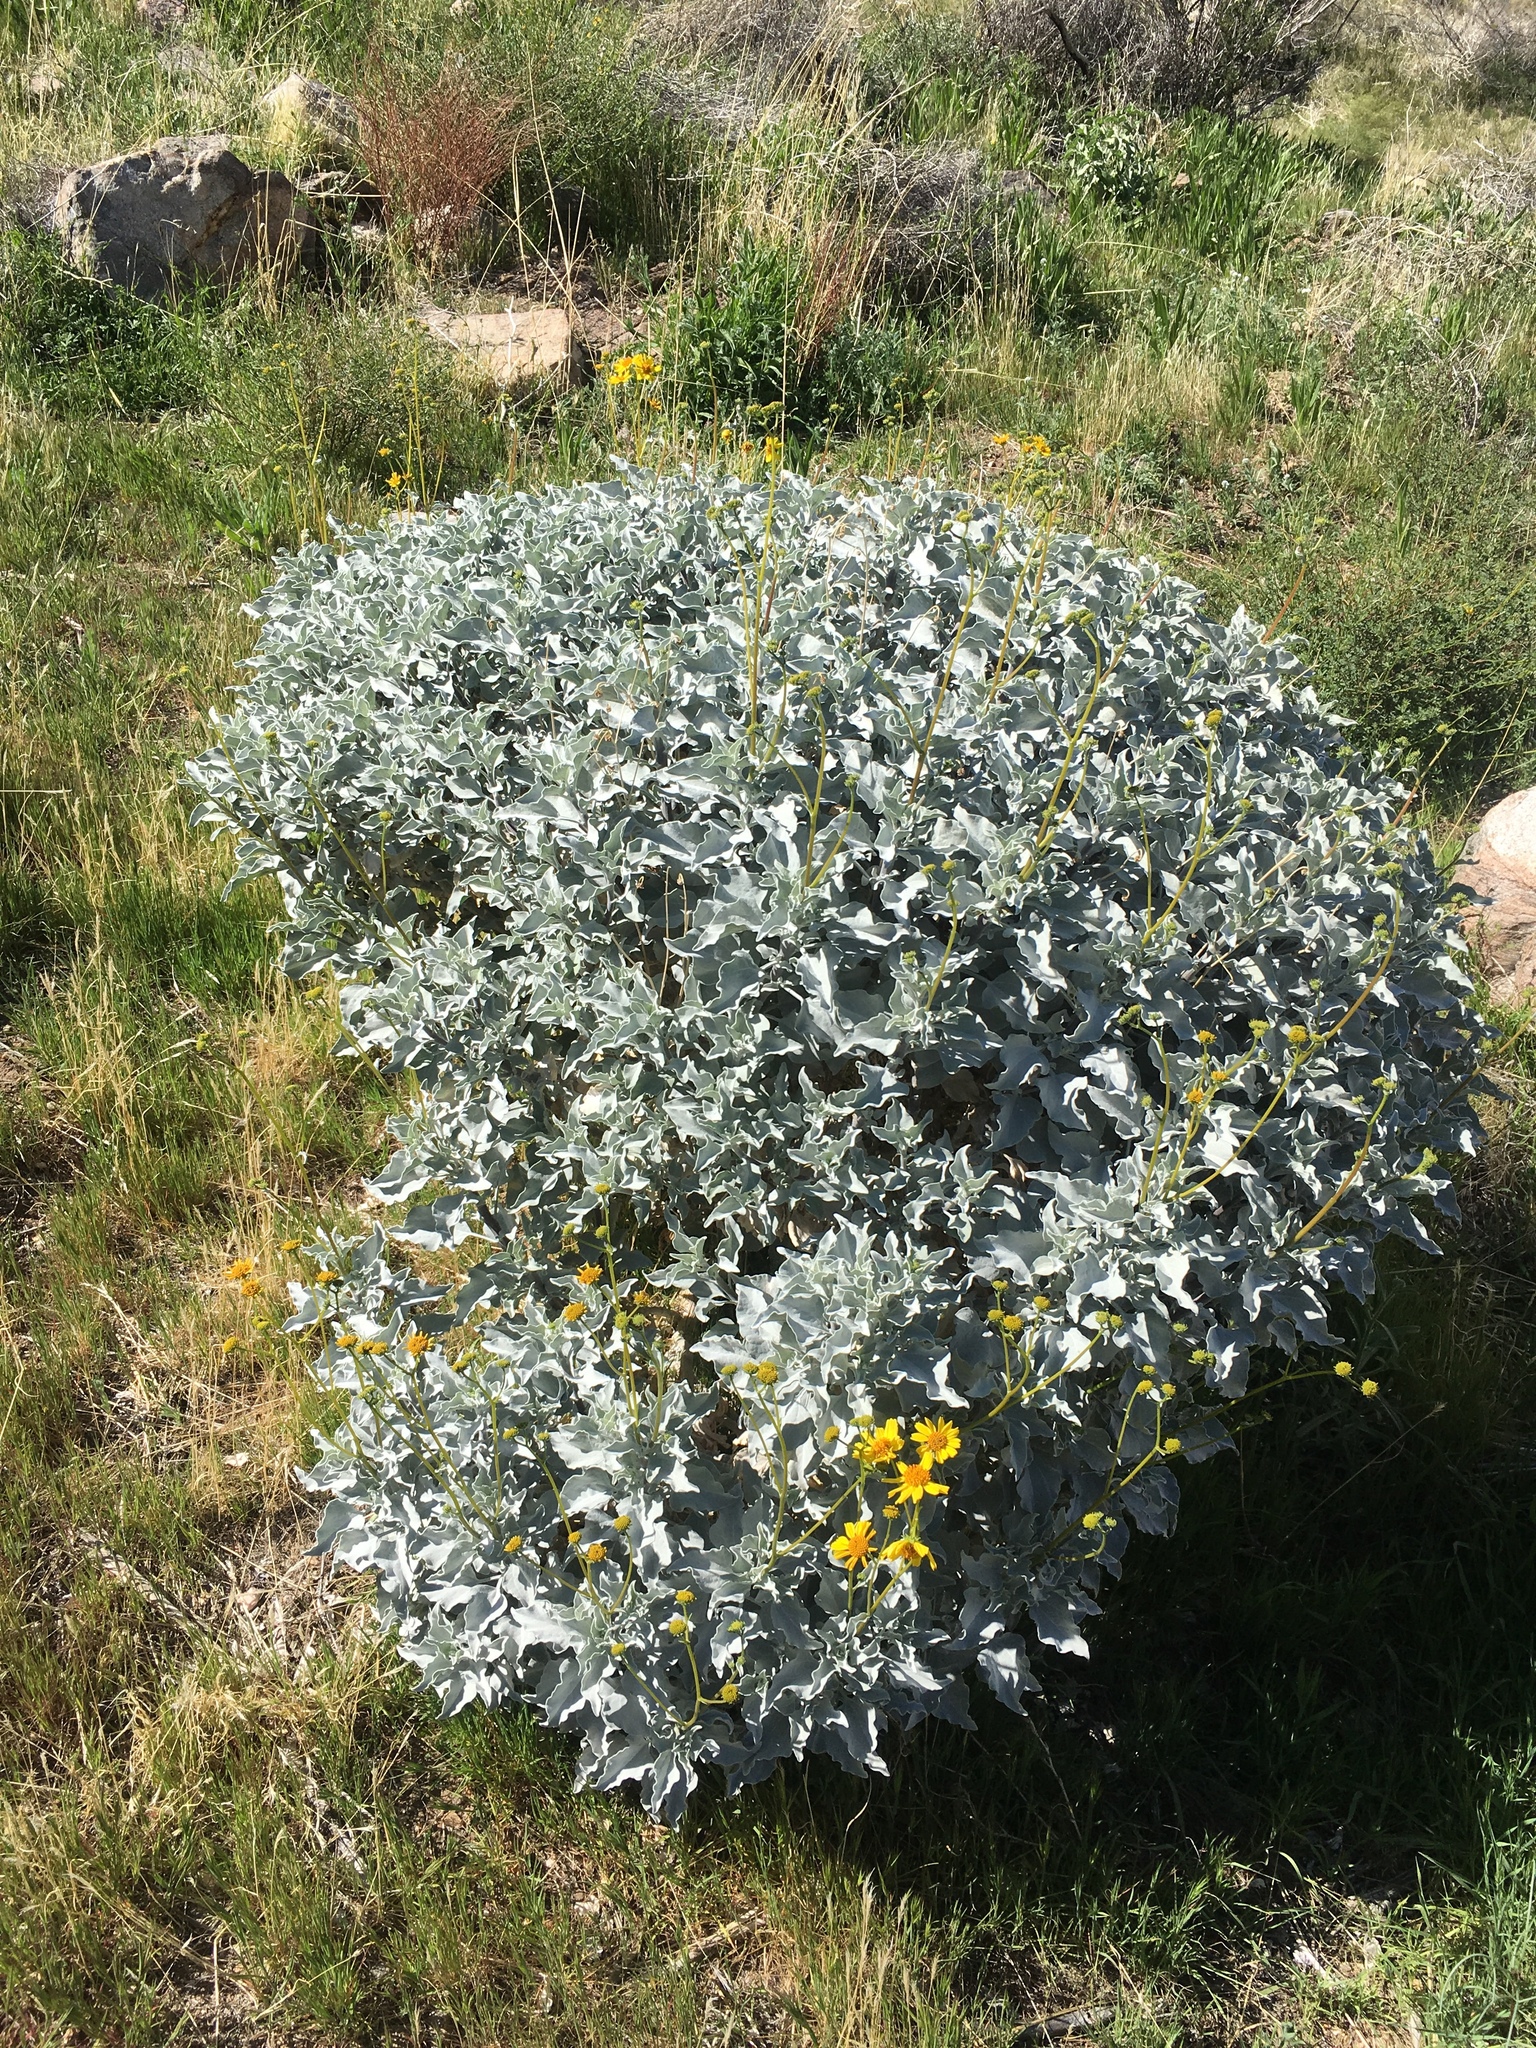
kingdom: Plantae
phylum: Tracheophyta
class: Magnoliopsida
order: Asterales
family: Asteraceae
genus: Encelia
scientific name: Encelia farinosa
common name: Brittlebush
